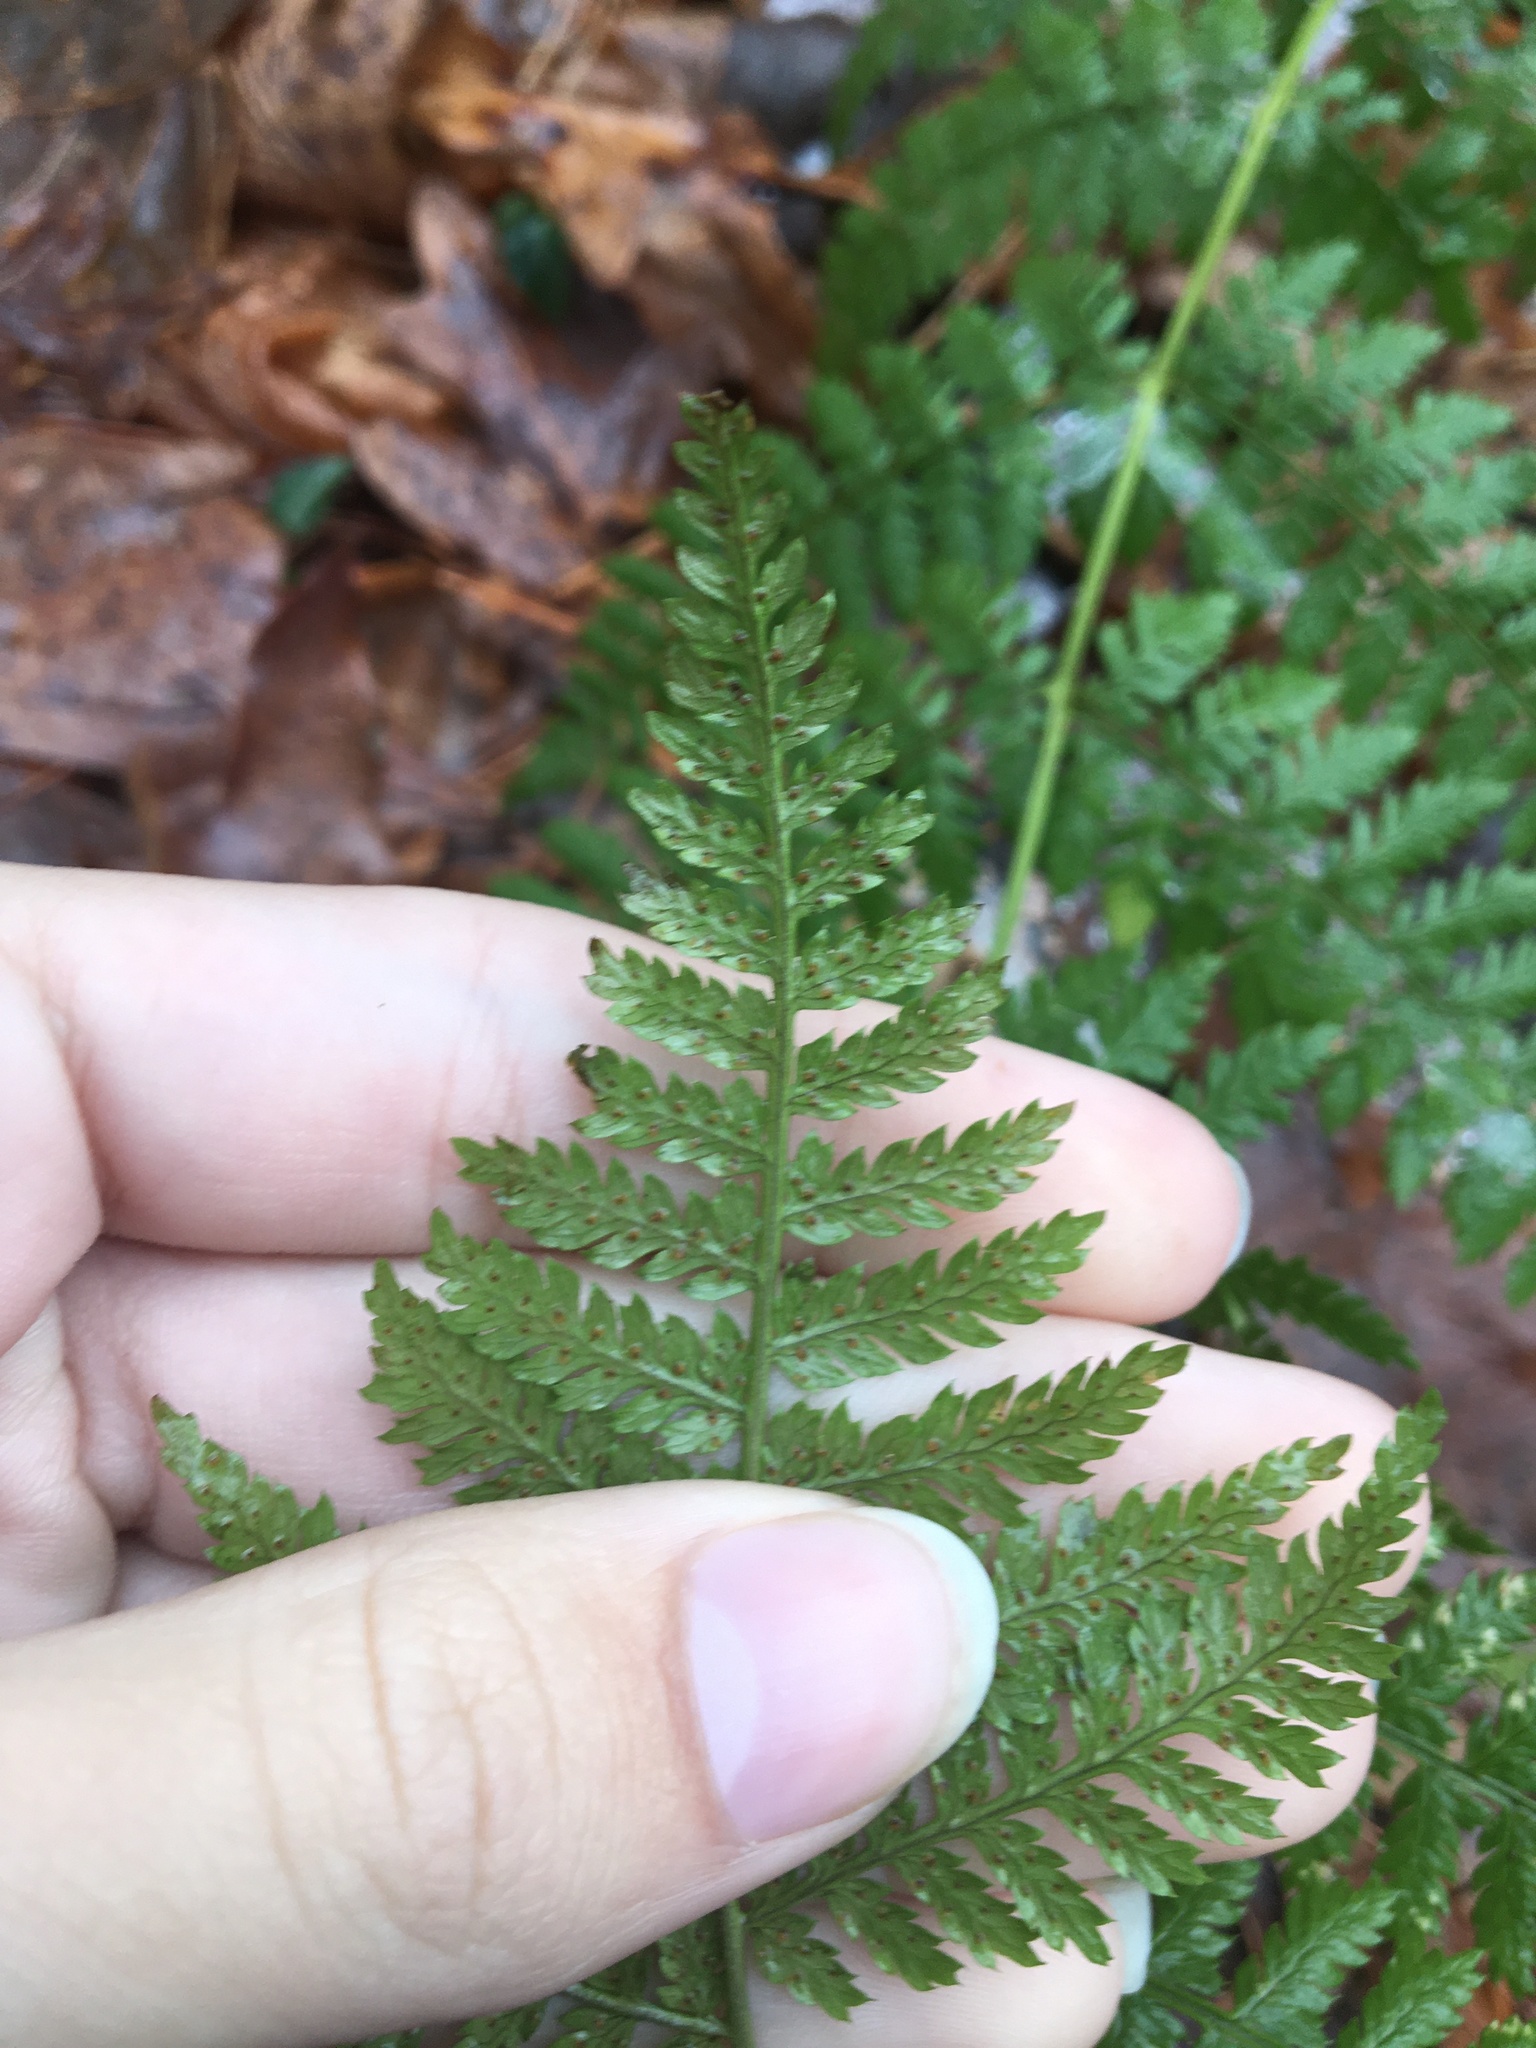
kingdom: Plantae
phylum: Tracheophyta
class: Polypodiopsida
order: Polypodiales
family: Dryopteridaceae
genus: Dryopteris
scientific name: Dryopteris intermedia
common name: Evergreen wood fern
